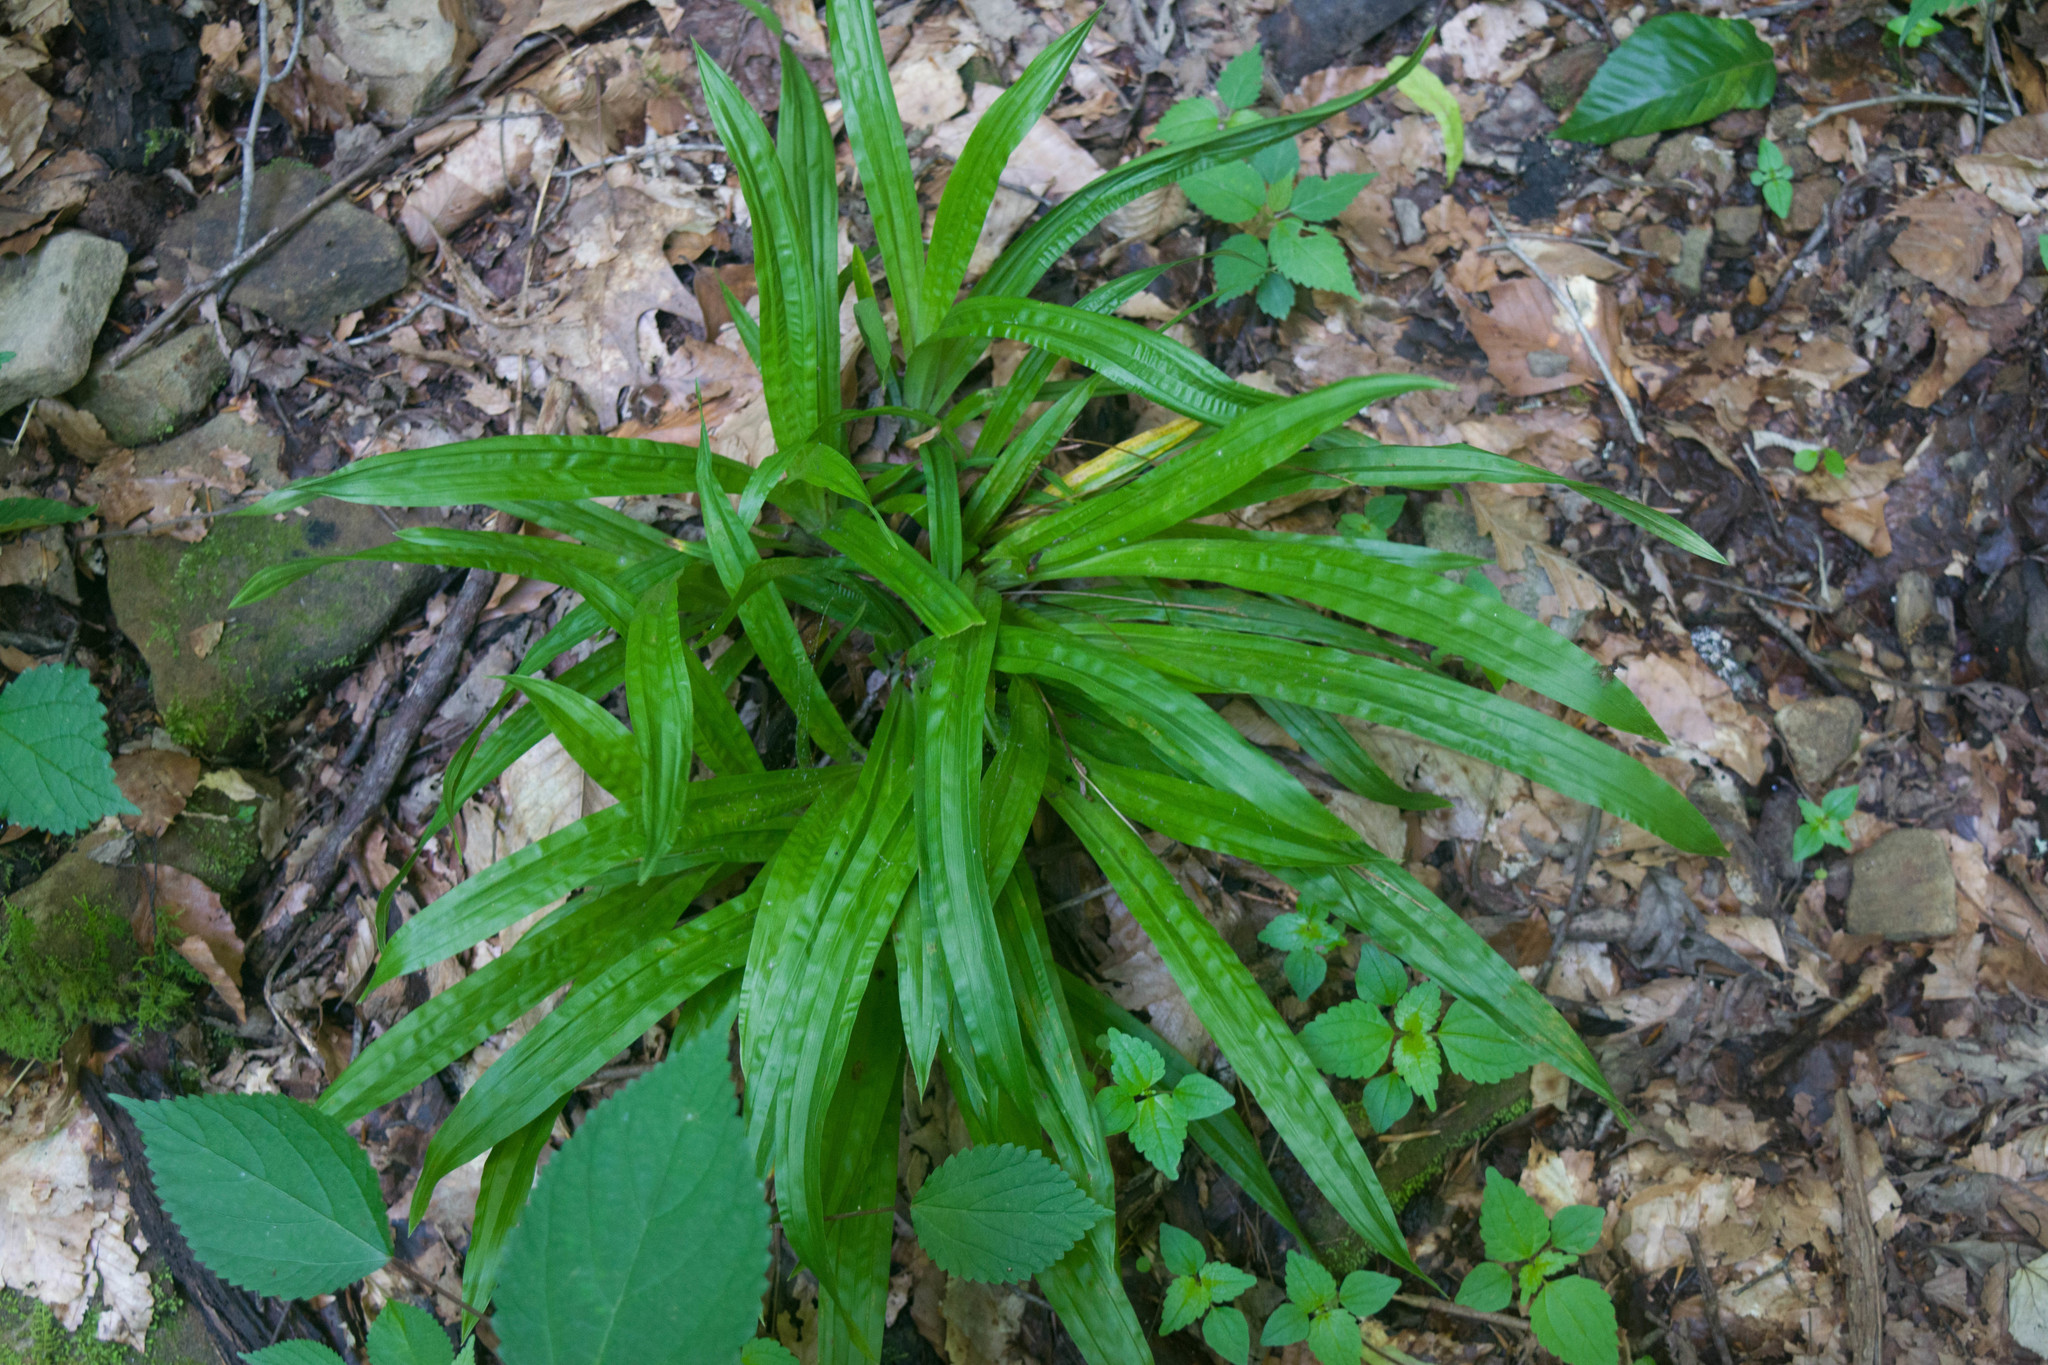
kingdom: Plantae
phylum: Tracheophyta
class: Liliopsida
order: Poales
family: Cyperaceae
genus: Carex
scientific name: Carex plantaginea
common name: Plantain-leaved sedge
